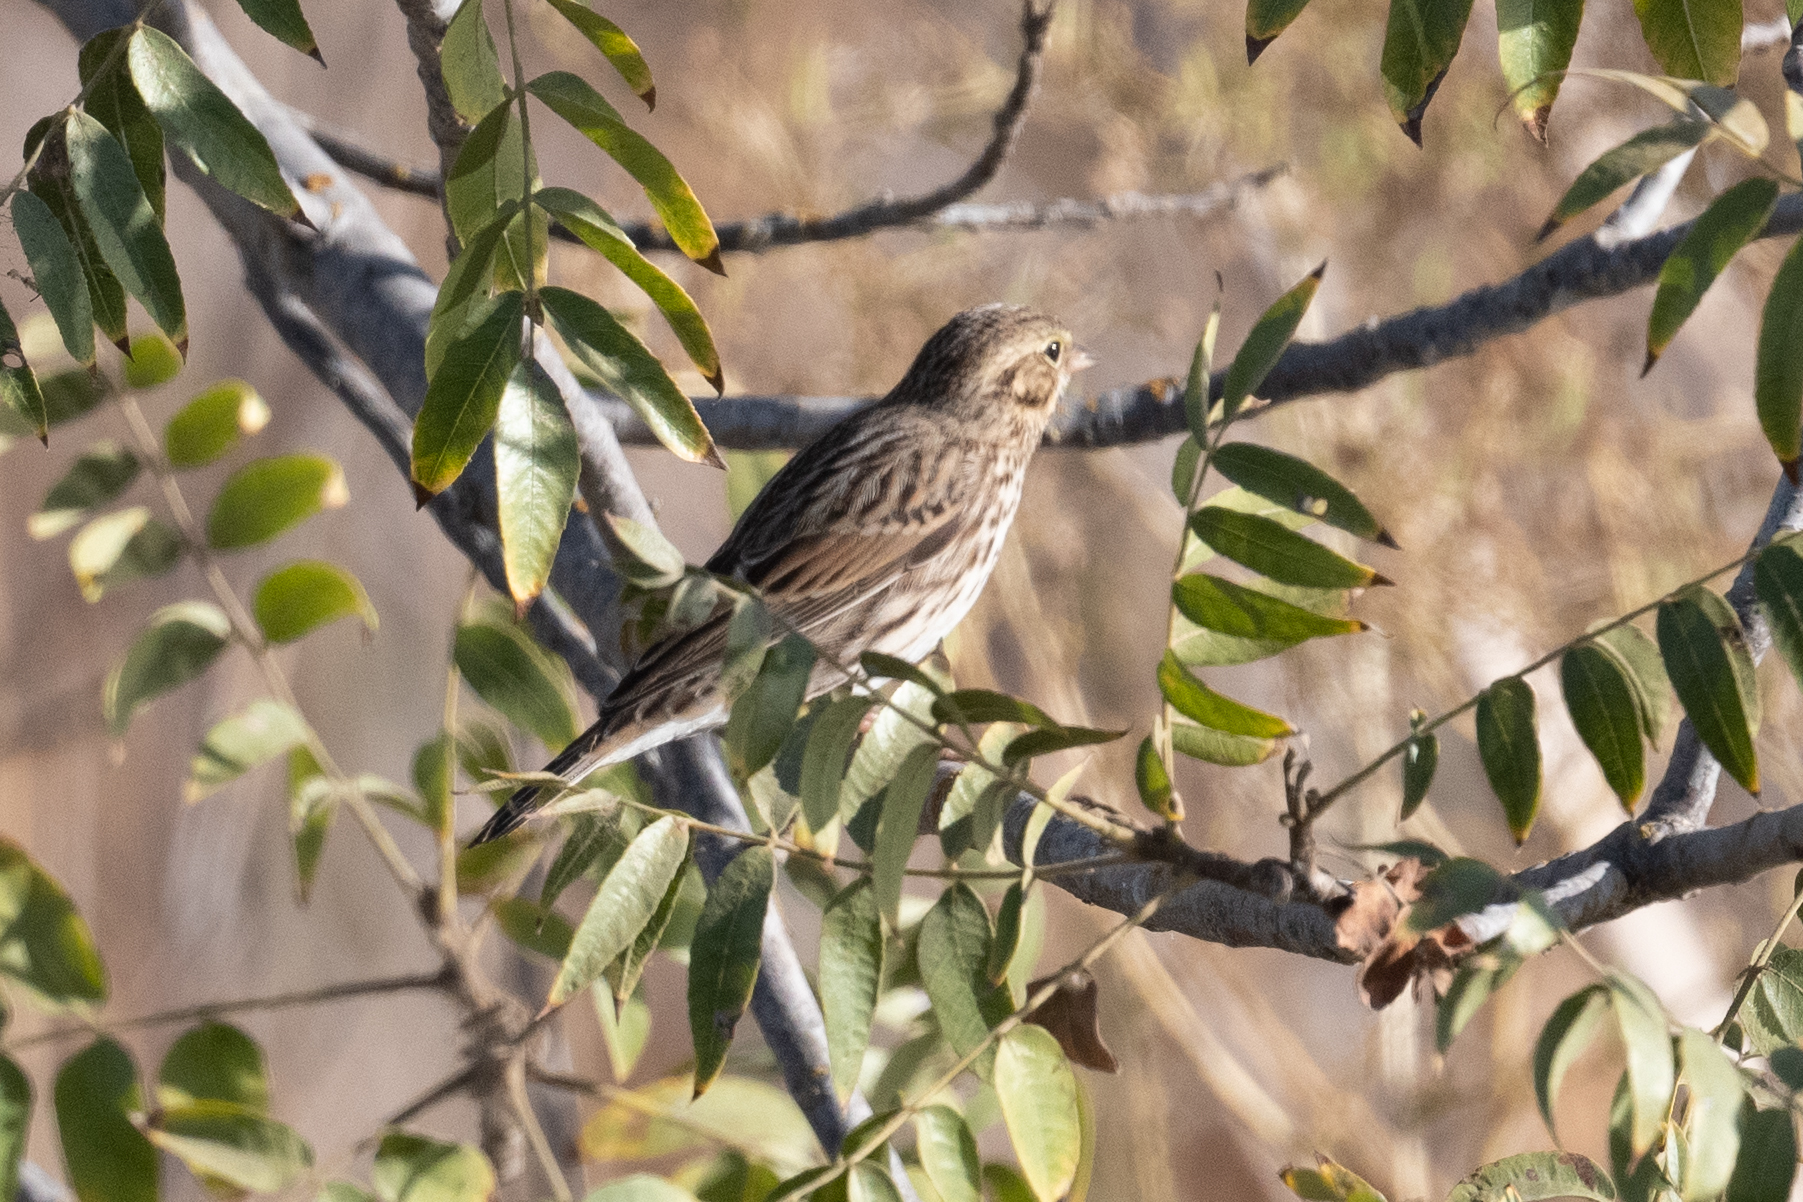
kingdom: Animalia
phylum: Chordata
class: Aves
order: Passeriformes
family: Passerellidae
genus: Passerculus
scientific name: Passerculus sandwichensis
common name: Savannah sparrow
